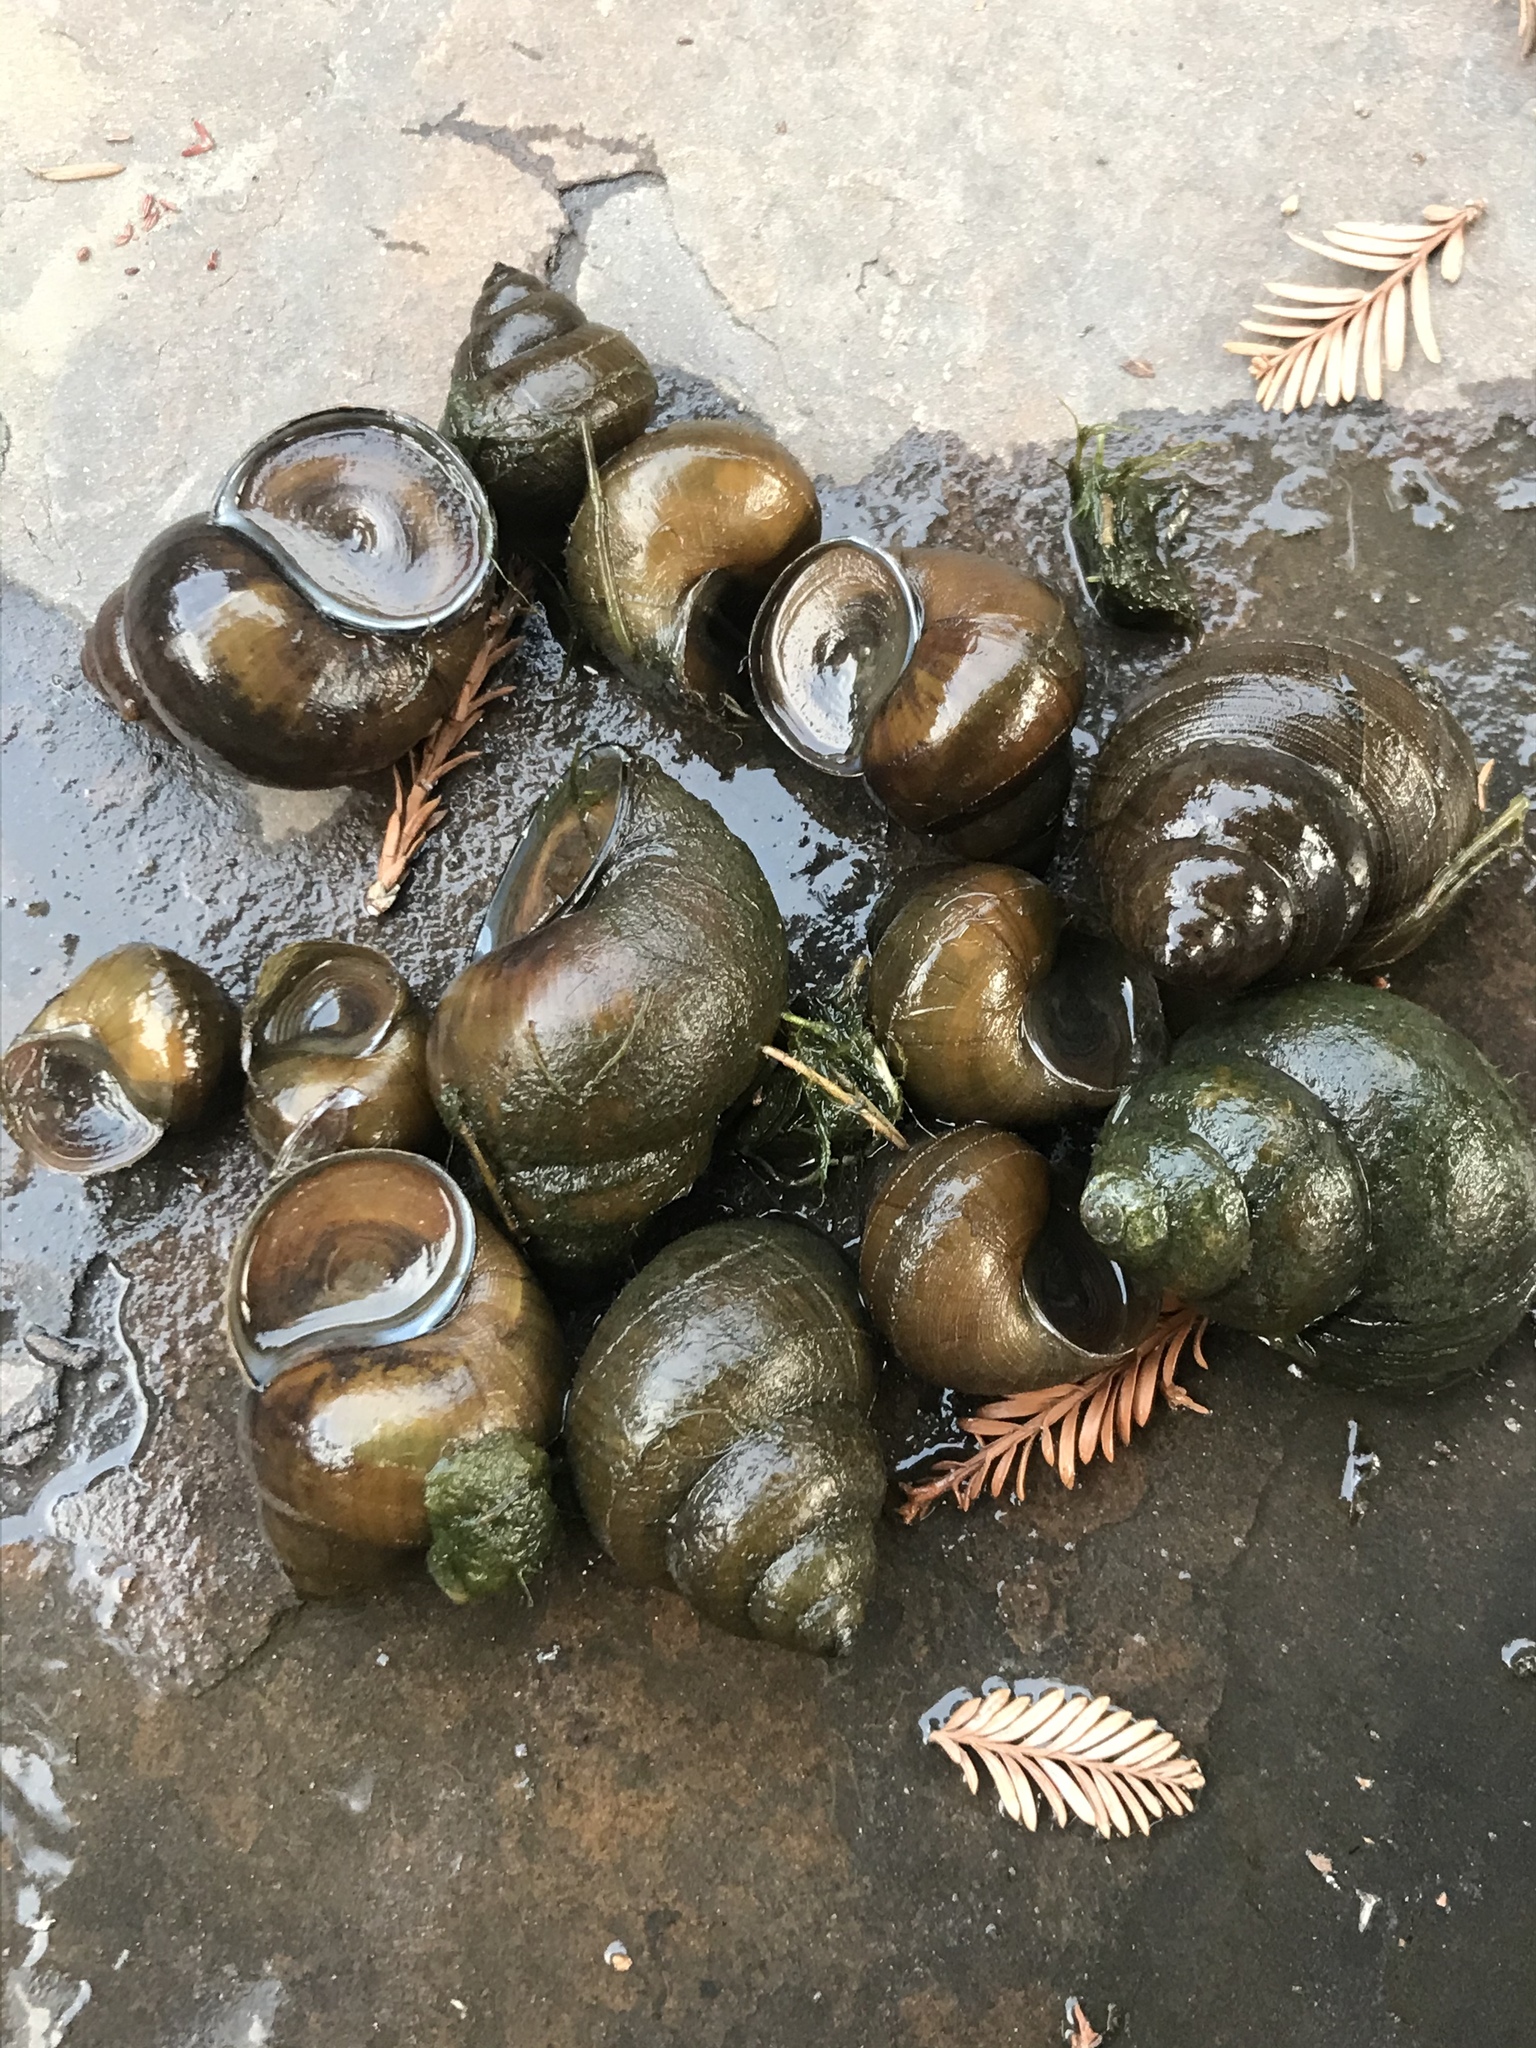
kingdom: Animalia
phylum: Mollusca
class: Gastropoda
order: Architaenioglossa
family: Viviparidae
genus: Cipangopaludina
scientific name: Cipangopaludina chinensis
